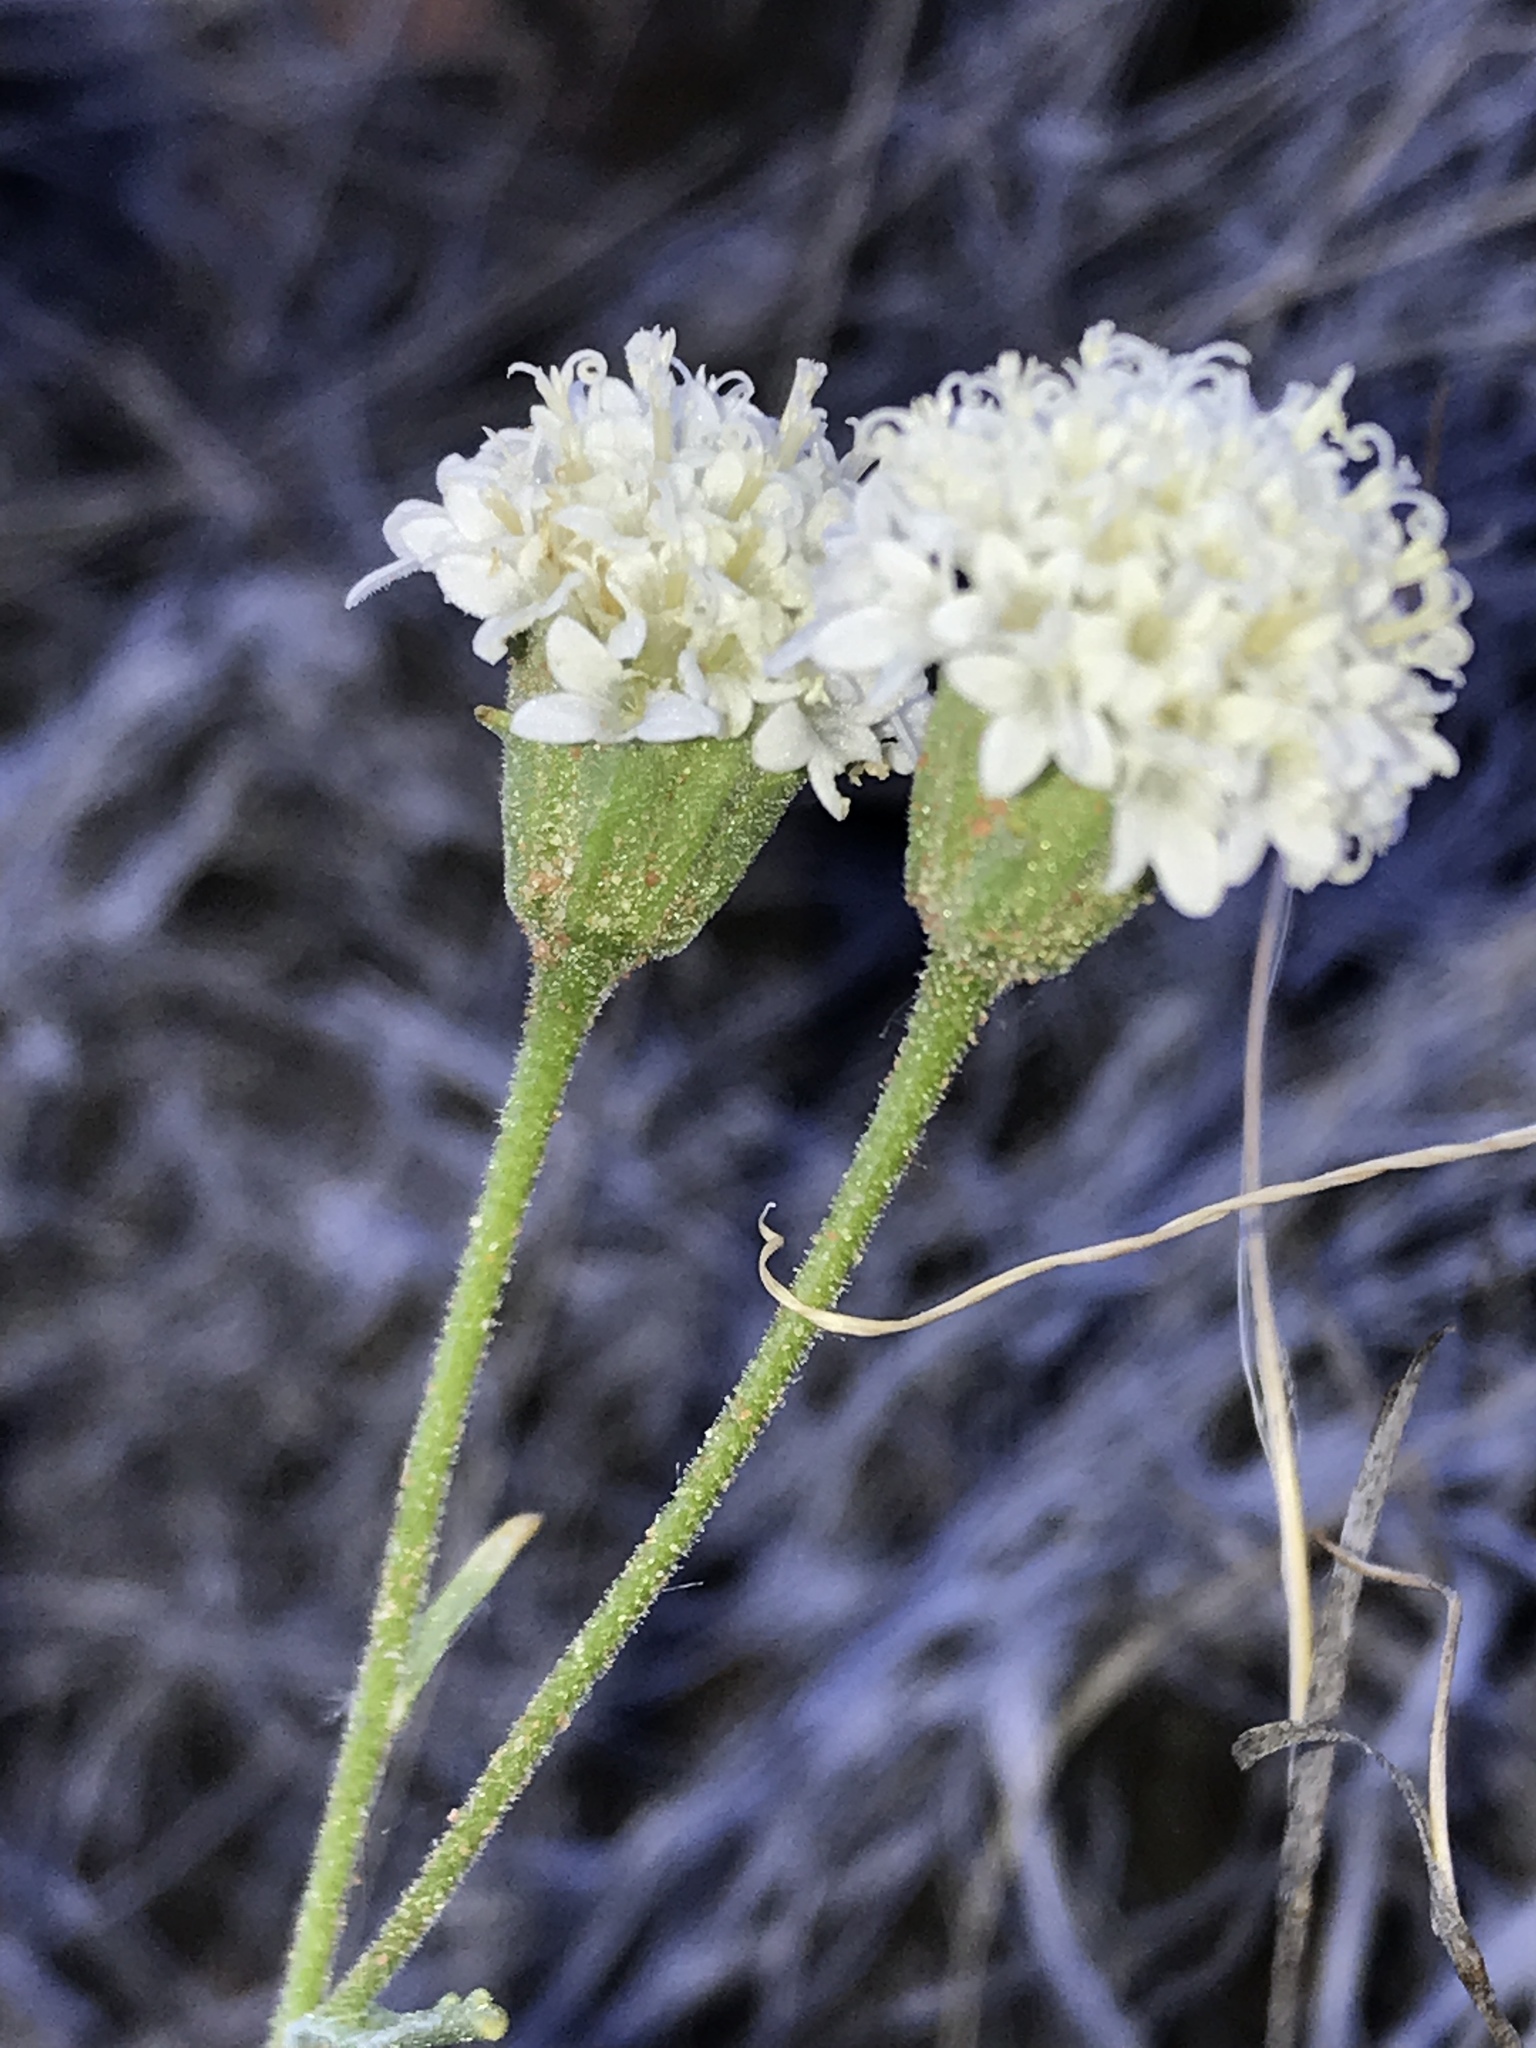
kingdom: Plantae
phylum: Tracheophyta
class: Magnoliopsida
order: Asterales
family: Asteraceae
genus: Chaenactis
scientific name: Chaenactis stevioides
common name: Desert pincushion
